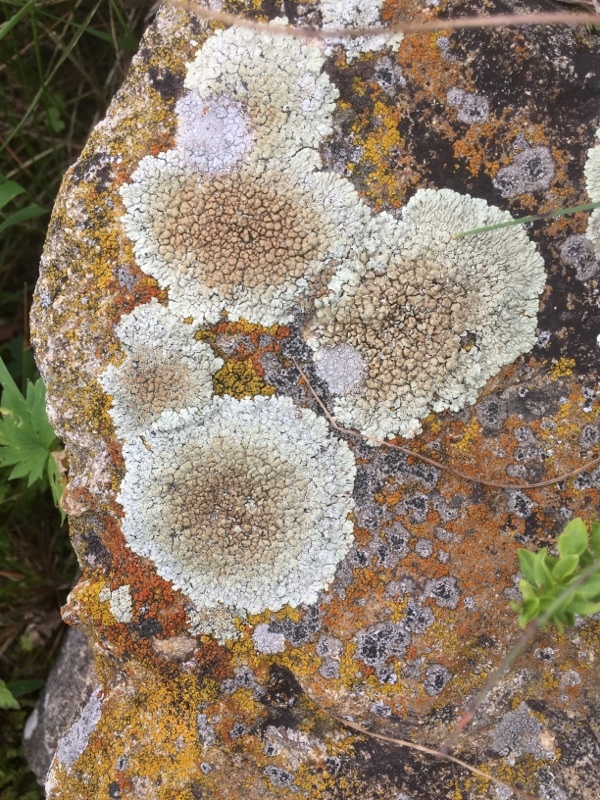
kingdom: Fungi
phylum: Ascomycota
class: Lecanoromycetes
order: Lecanorales
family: Lecanoraceae
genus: Protoparmeliopsis
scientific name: Protoparmeliopsis muralis
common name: Stonewall rim lichen
